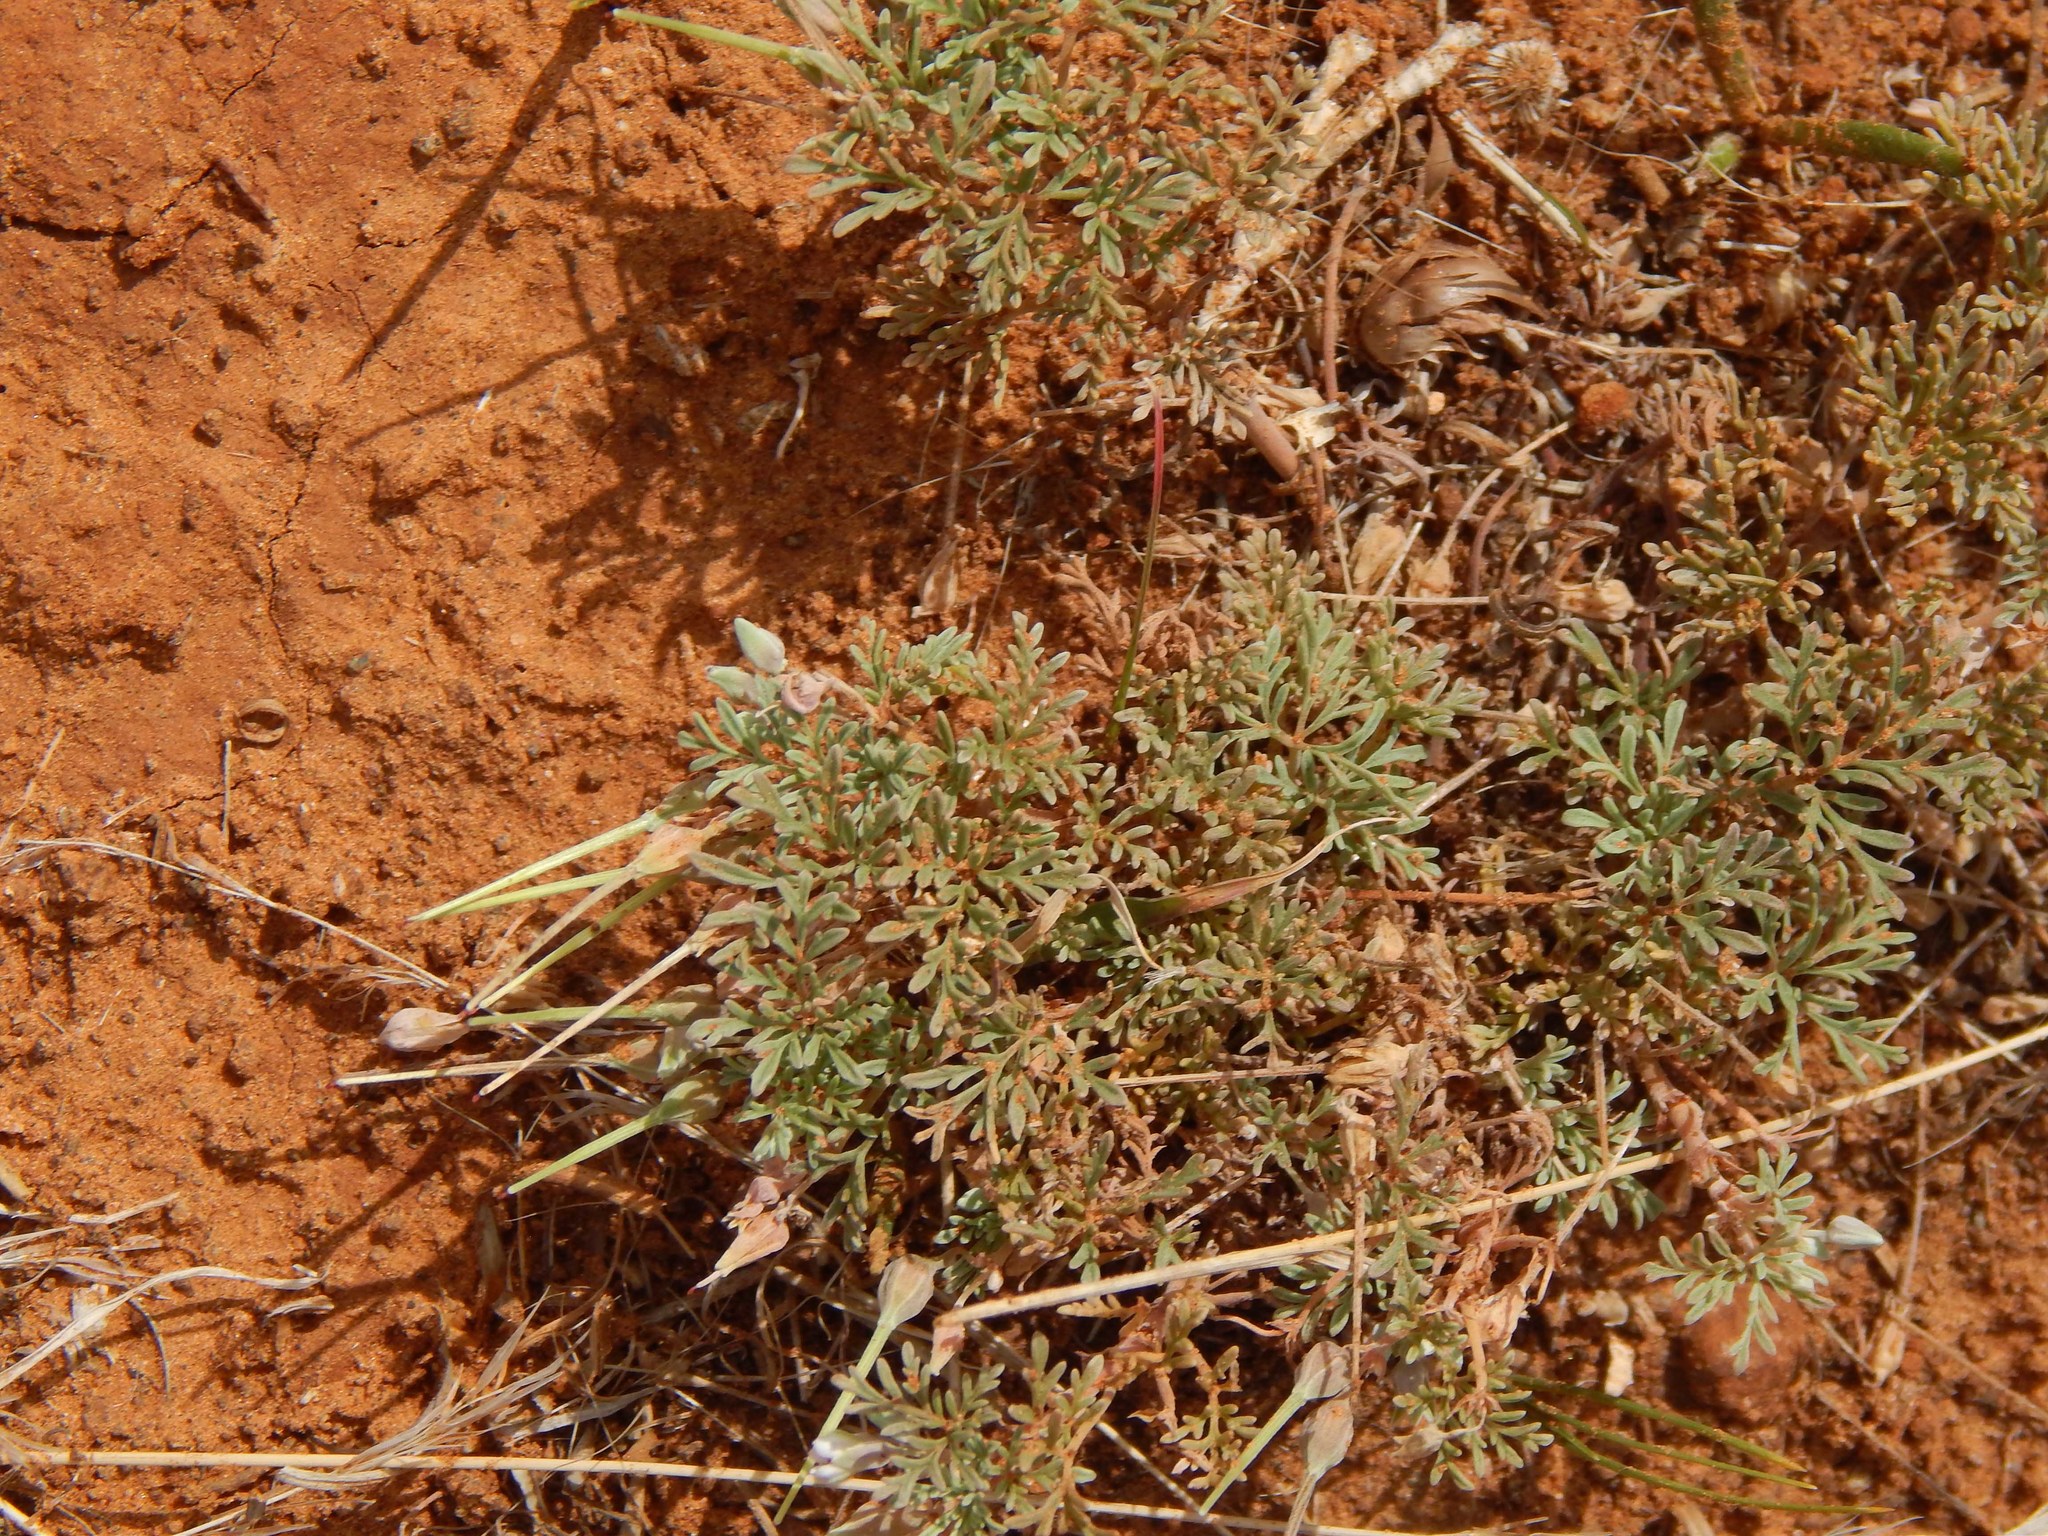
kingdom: Plantae
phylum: Tracheophyta
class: Magnoliopsida
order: Geraniales
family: Geraniaceae
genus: Pelargonium
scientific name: Pelargonium minimum
